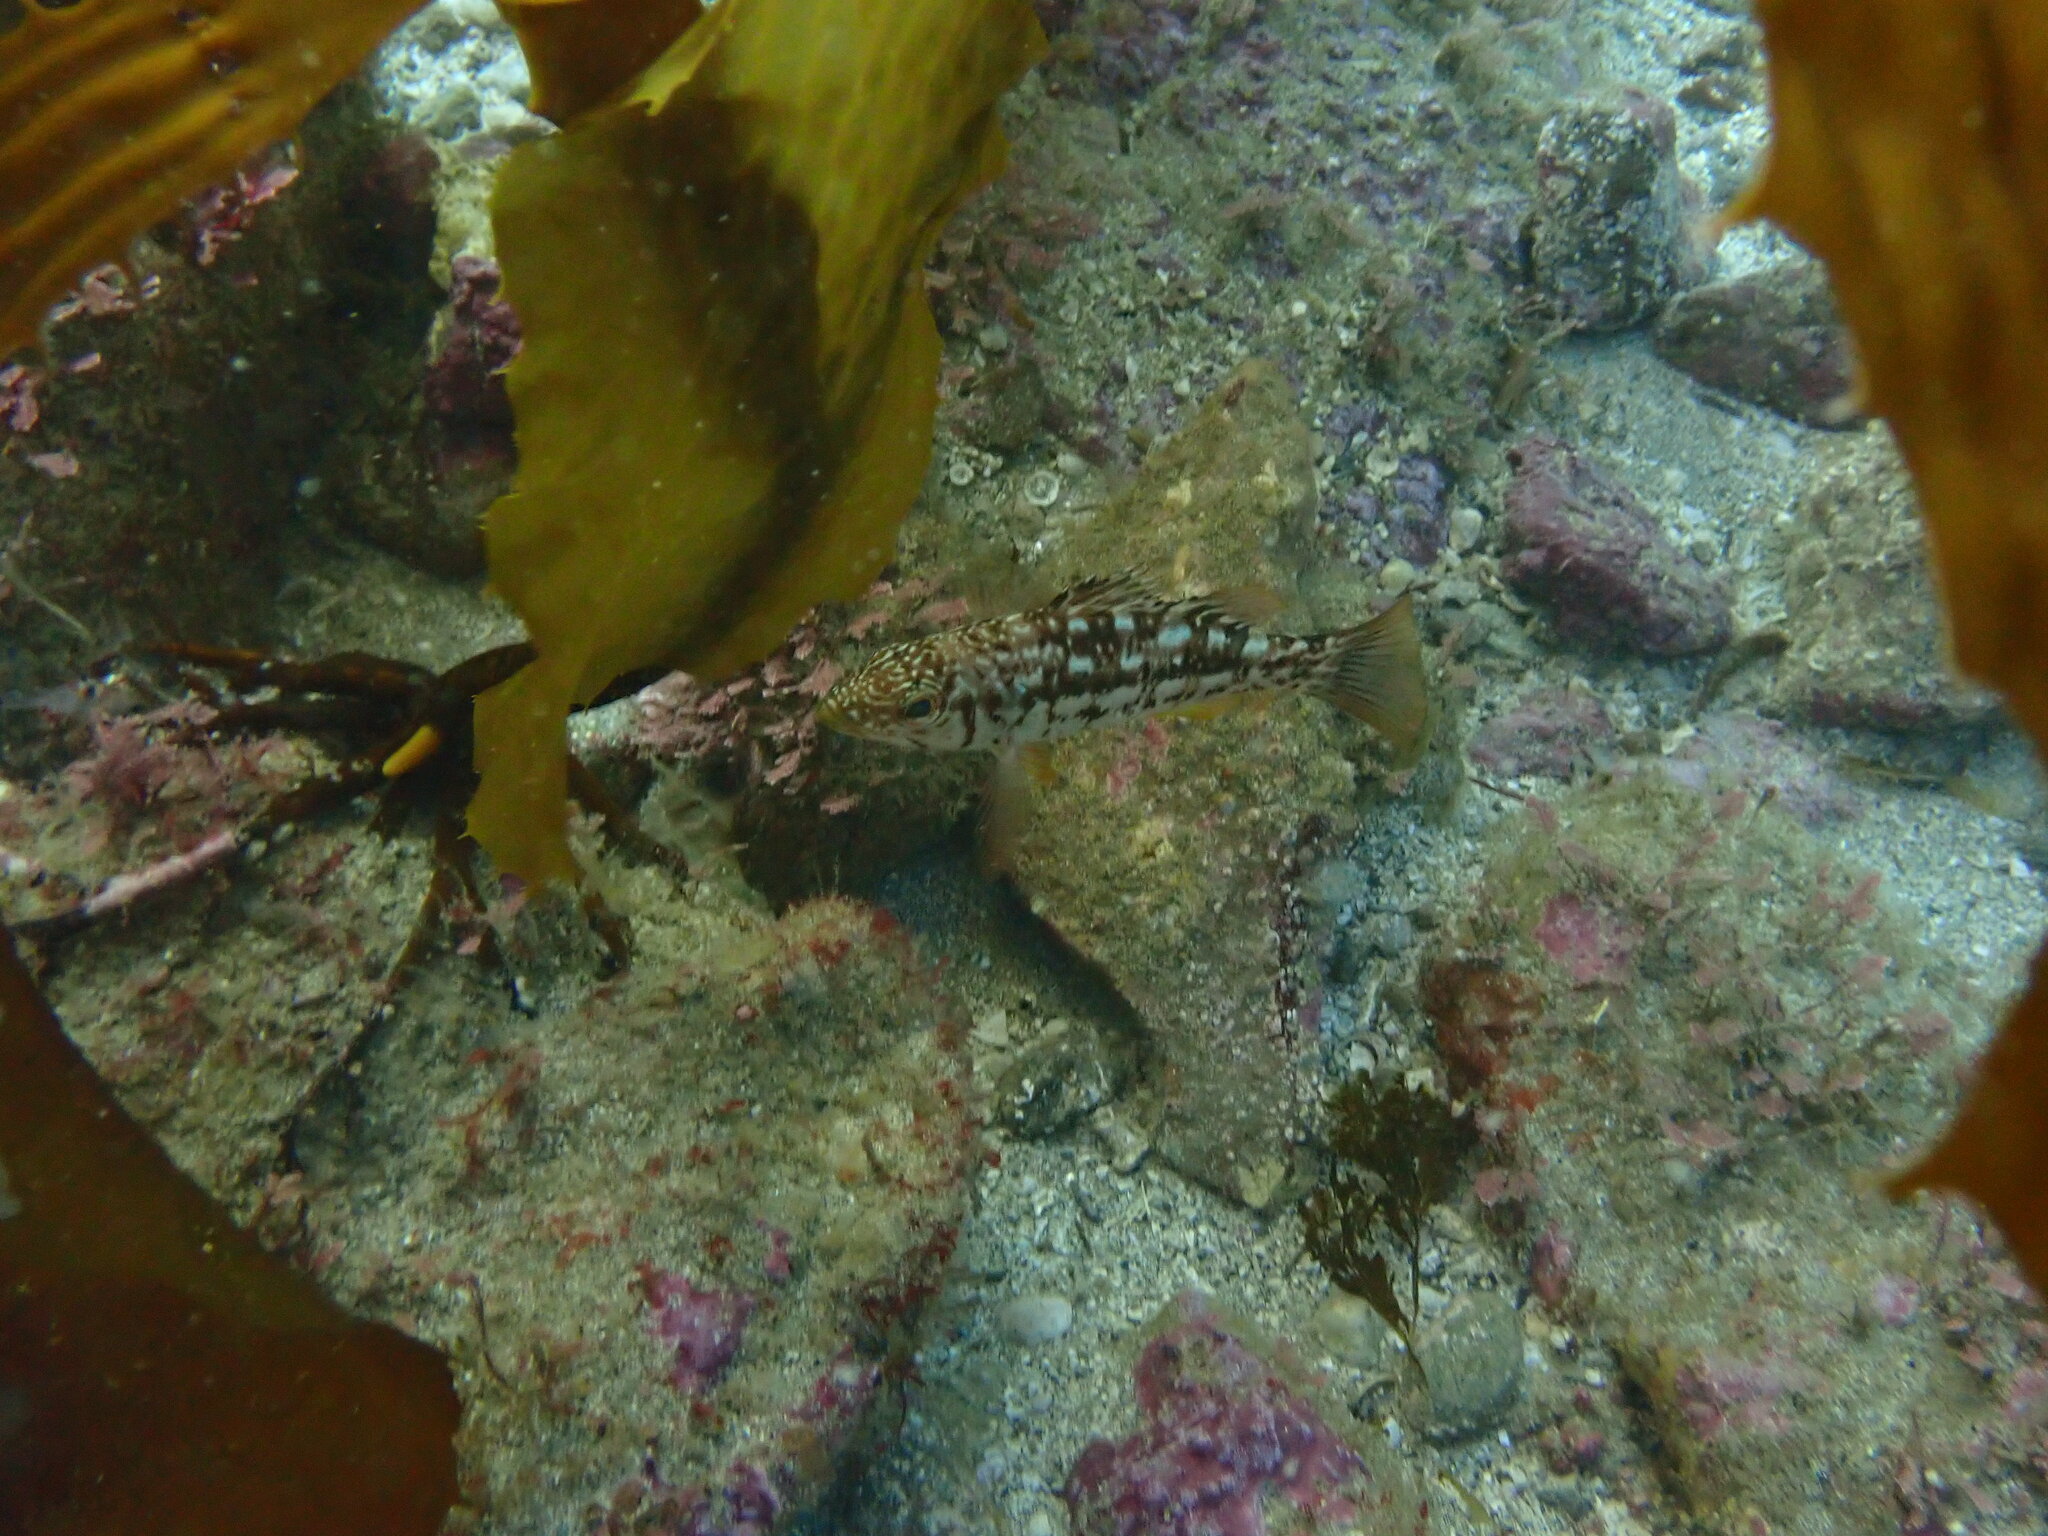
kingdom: Animalia
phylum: Chordata
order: Perciformes
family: Serranidae
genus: Paralabrax
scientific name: Paralabrax clathratus
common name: Kelp bass
